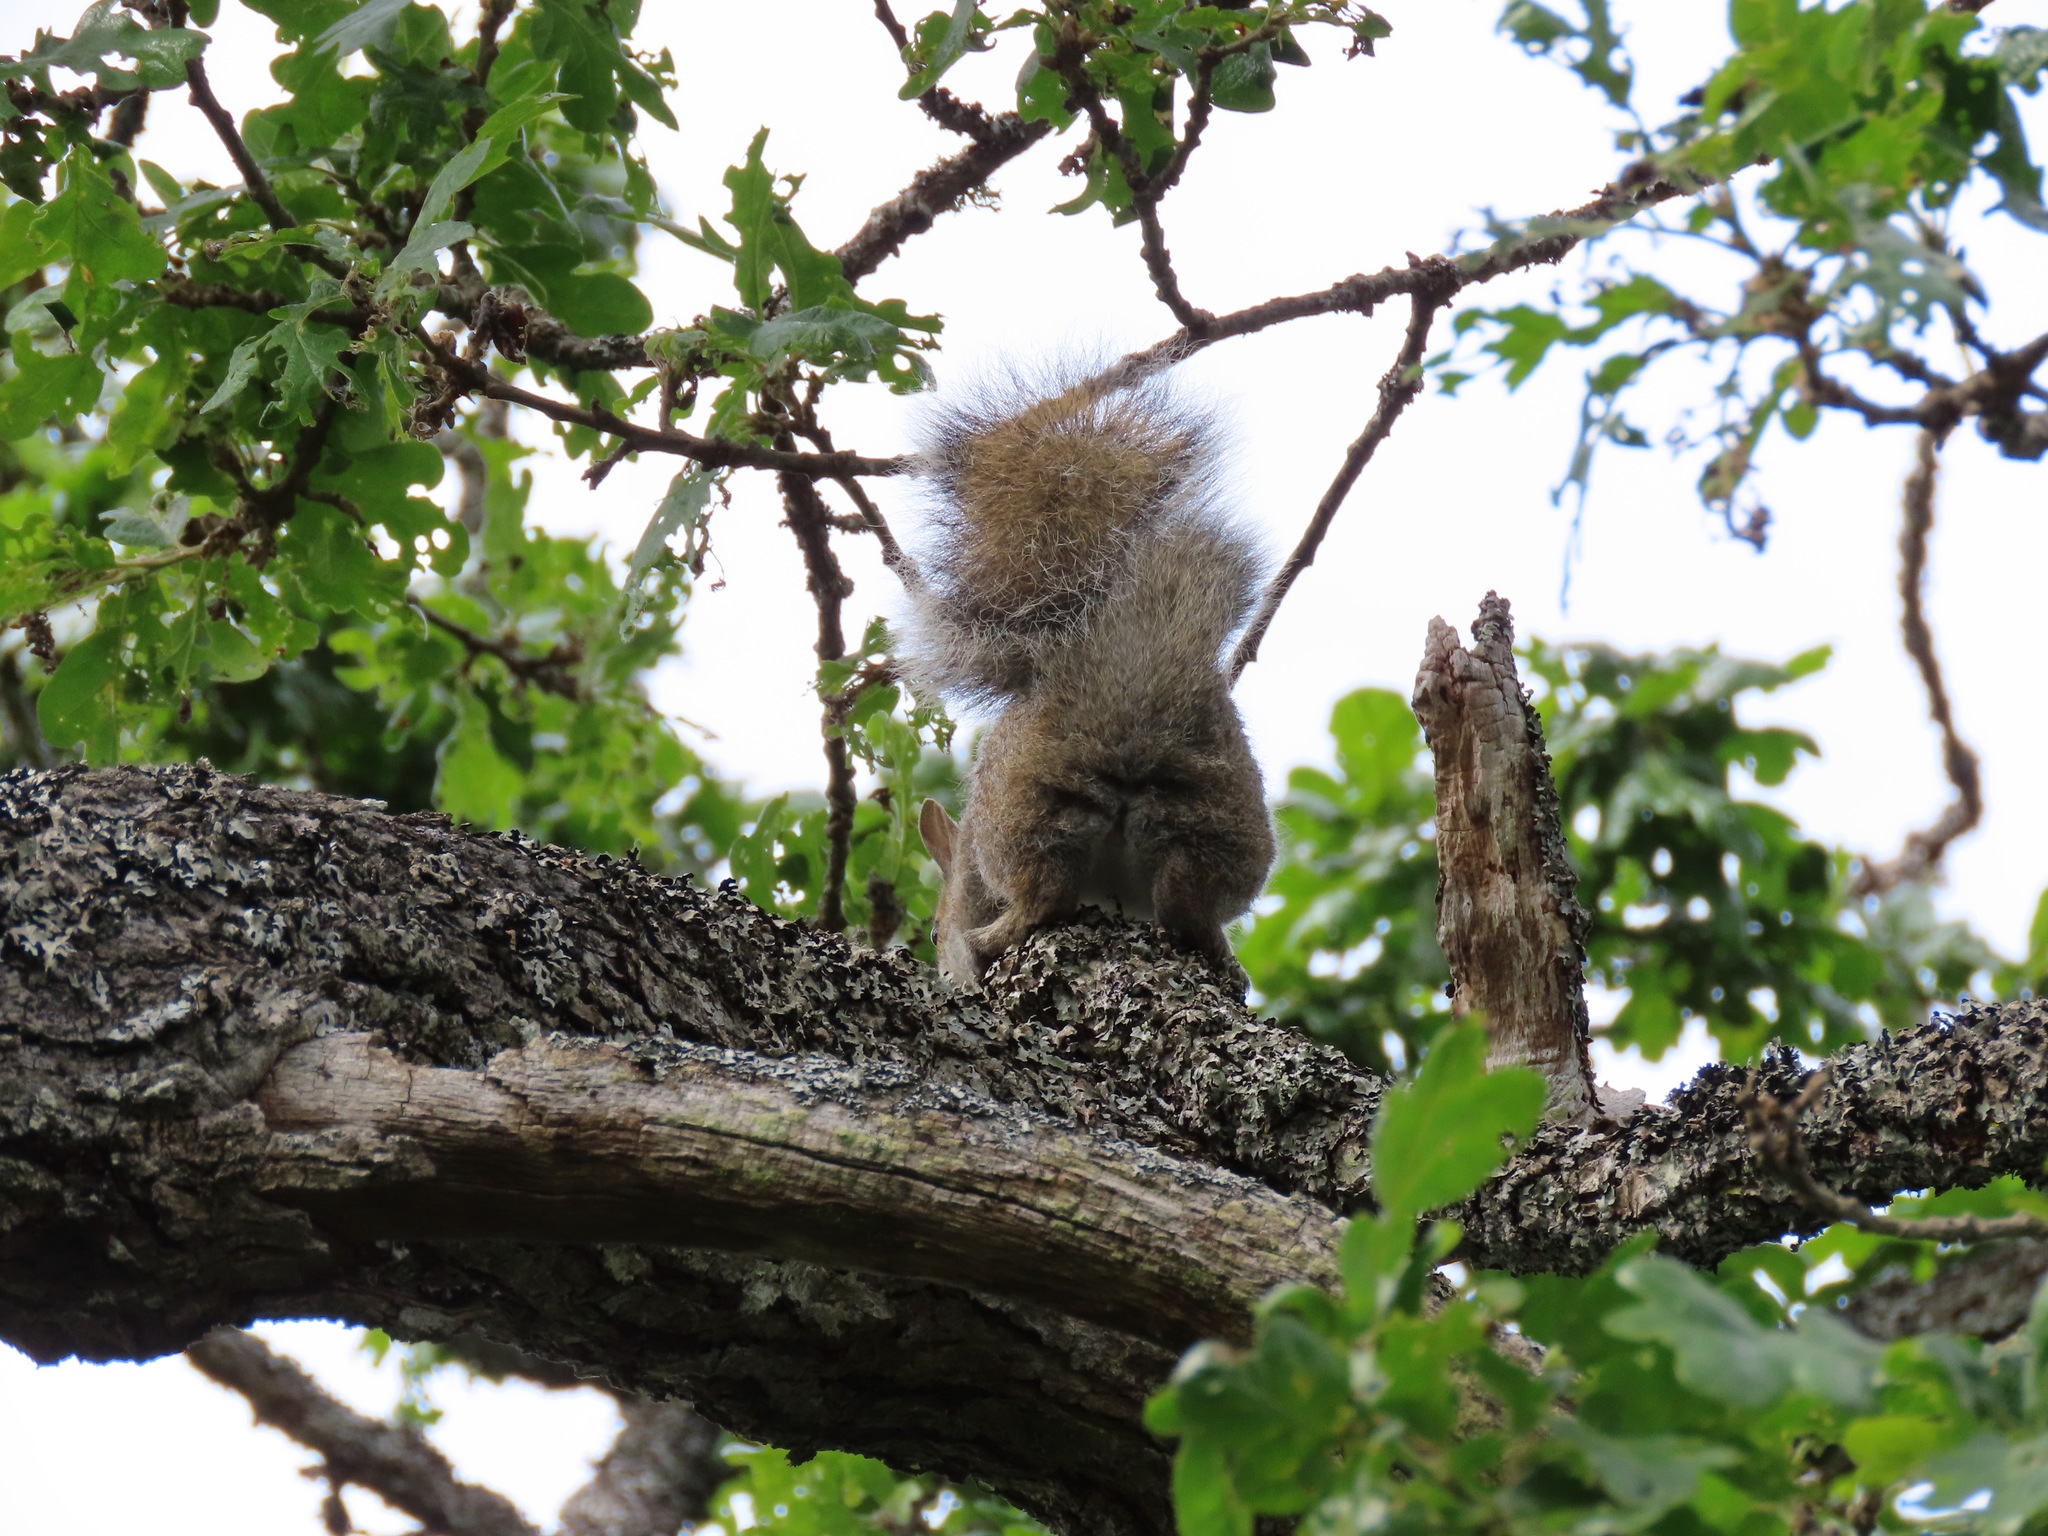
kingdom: Animalia
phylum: Chordata
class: Mammalia
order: Rodentia
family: Sciuridae
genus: Sciurus
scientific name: Sciurus carolinensis
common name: Eastern gray squirrel
